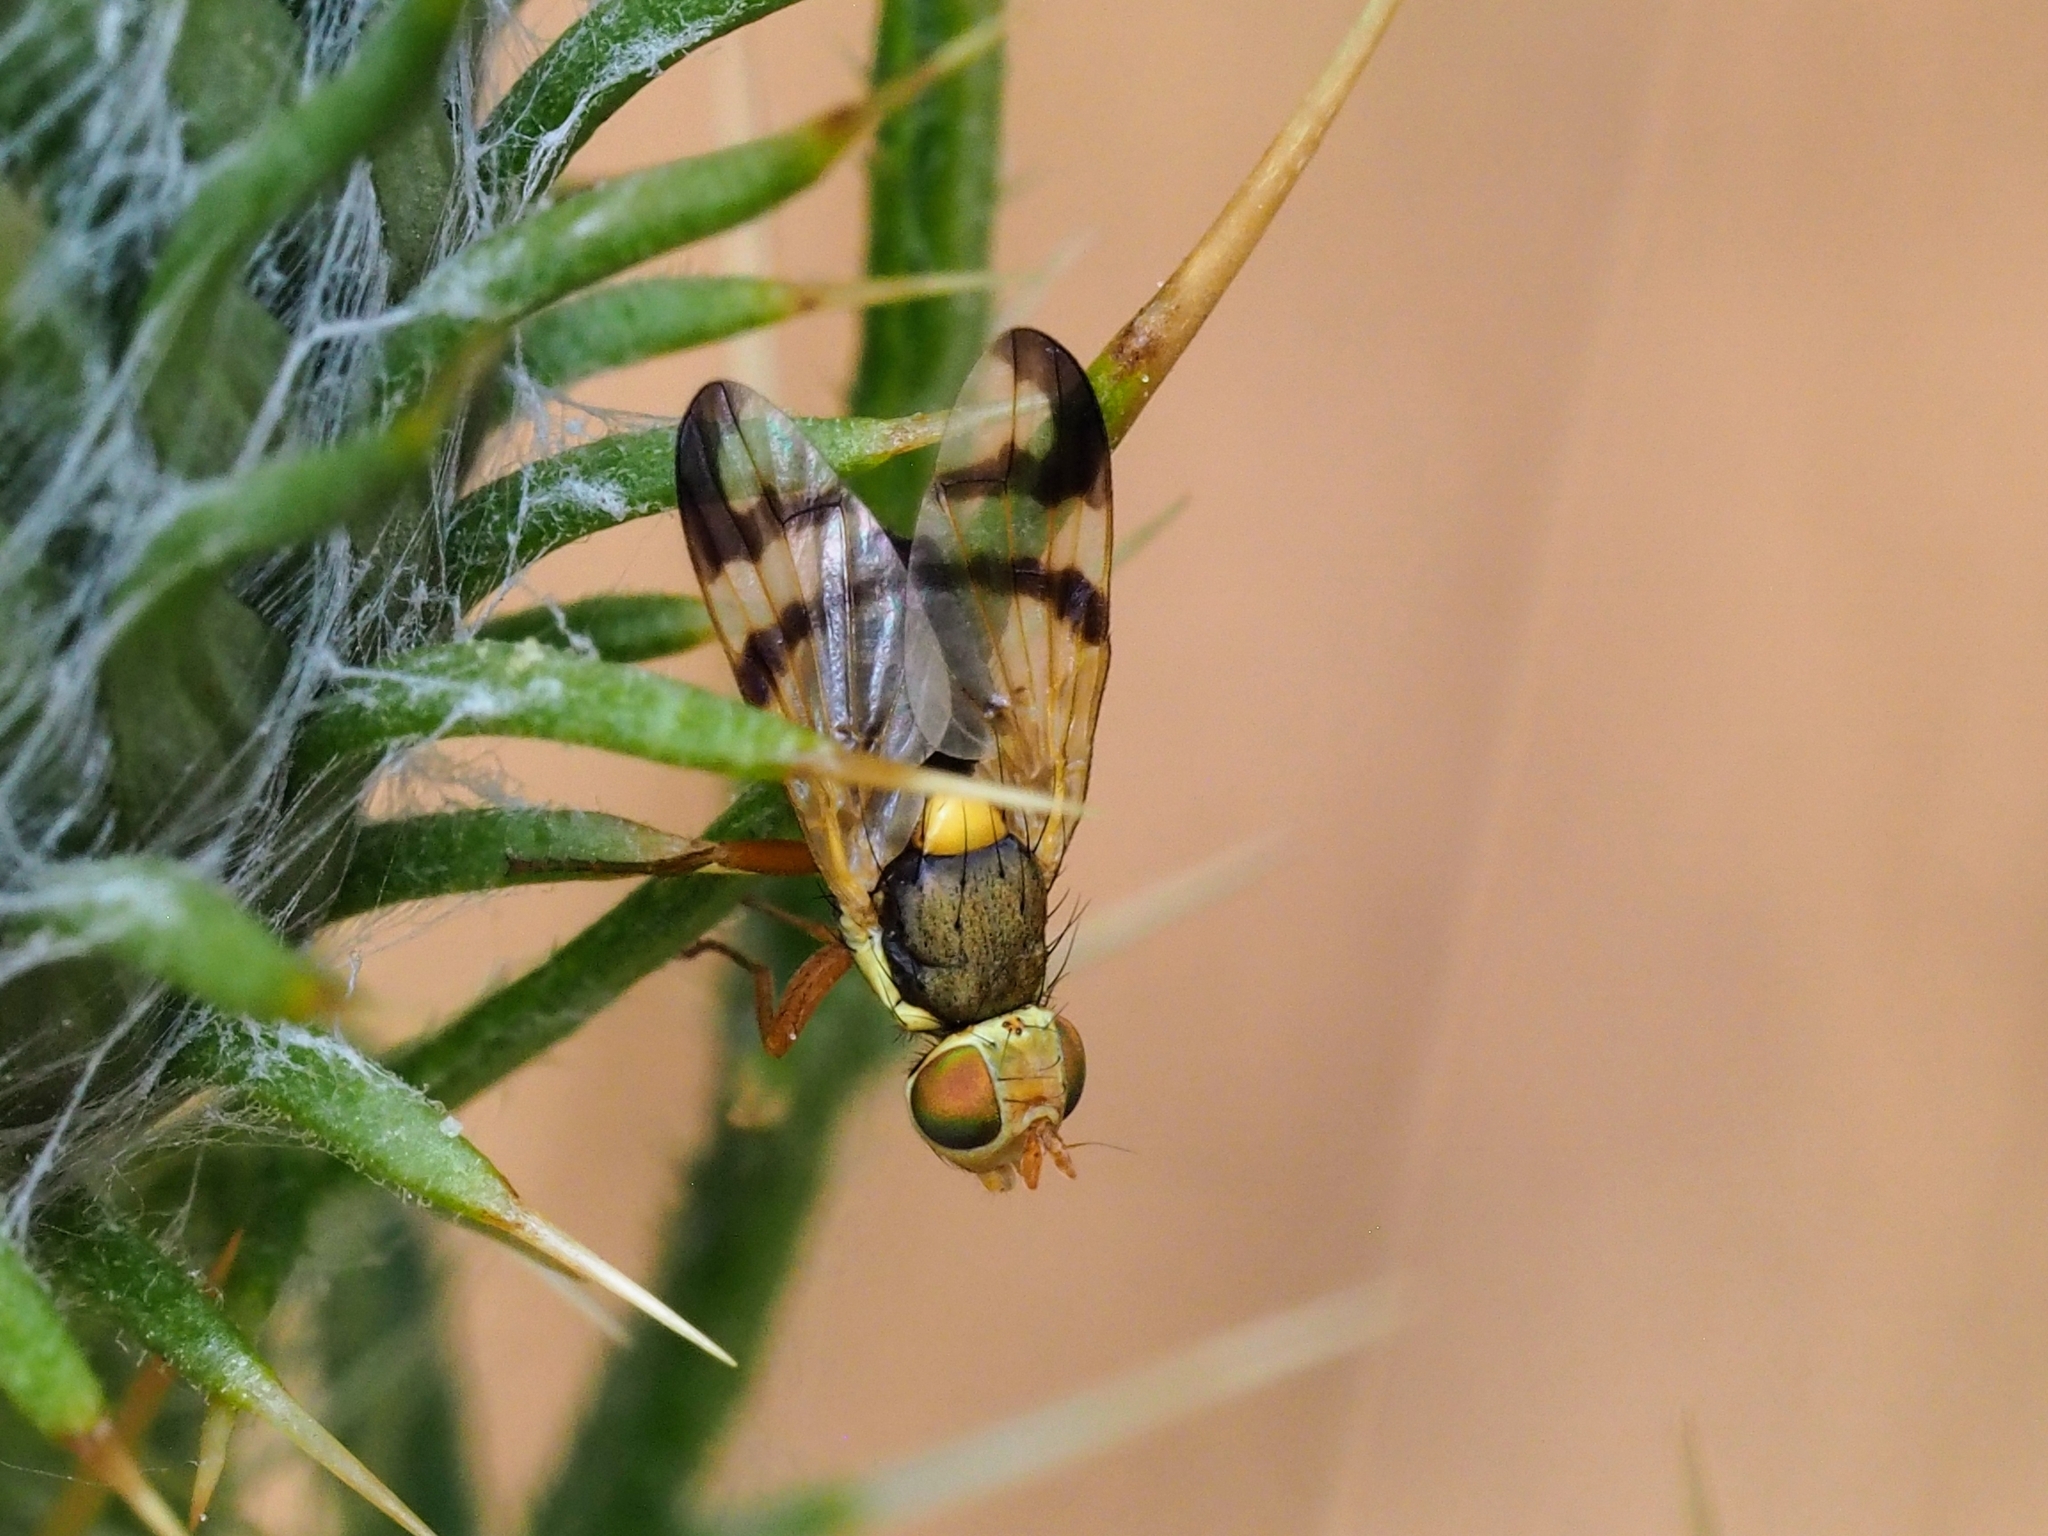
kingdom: Animalia
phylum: Arthropoda
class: Insecta
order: Diptera
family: Tephritidae
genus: Urophora
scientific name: Urophora stylata
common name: Fruit fly
